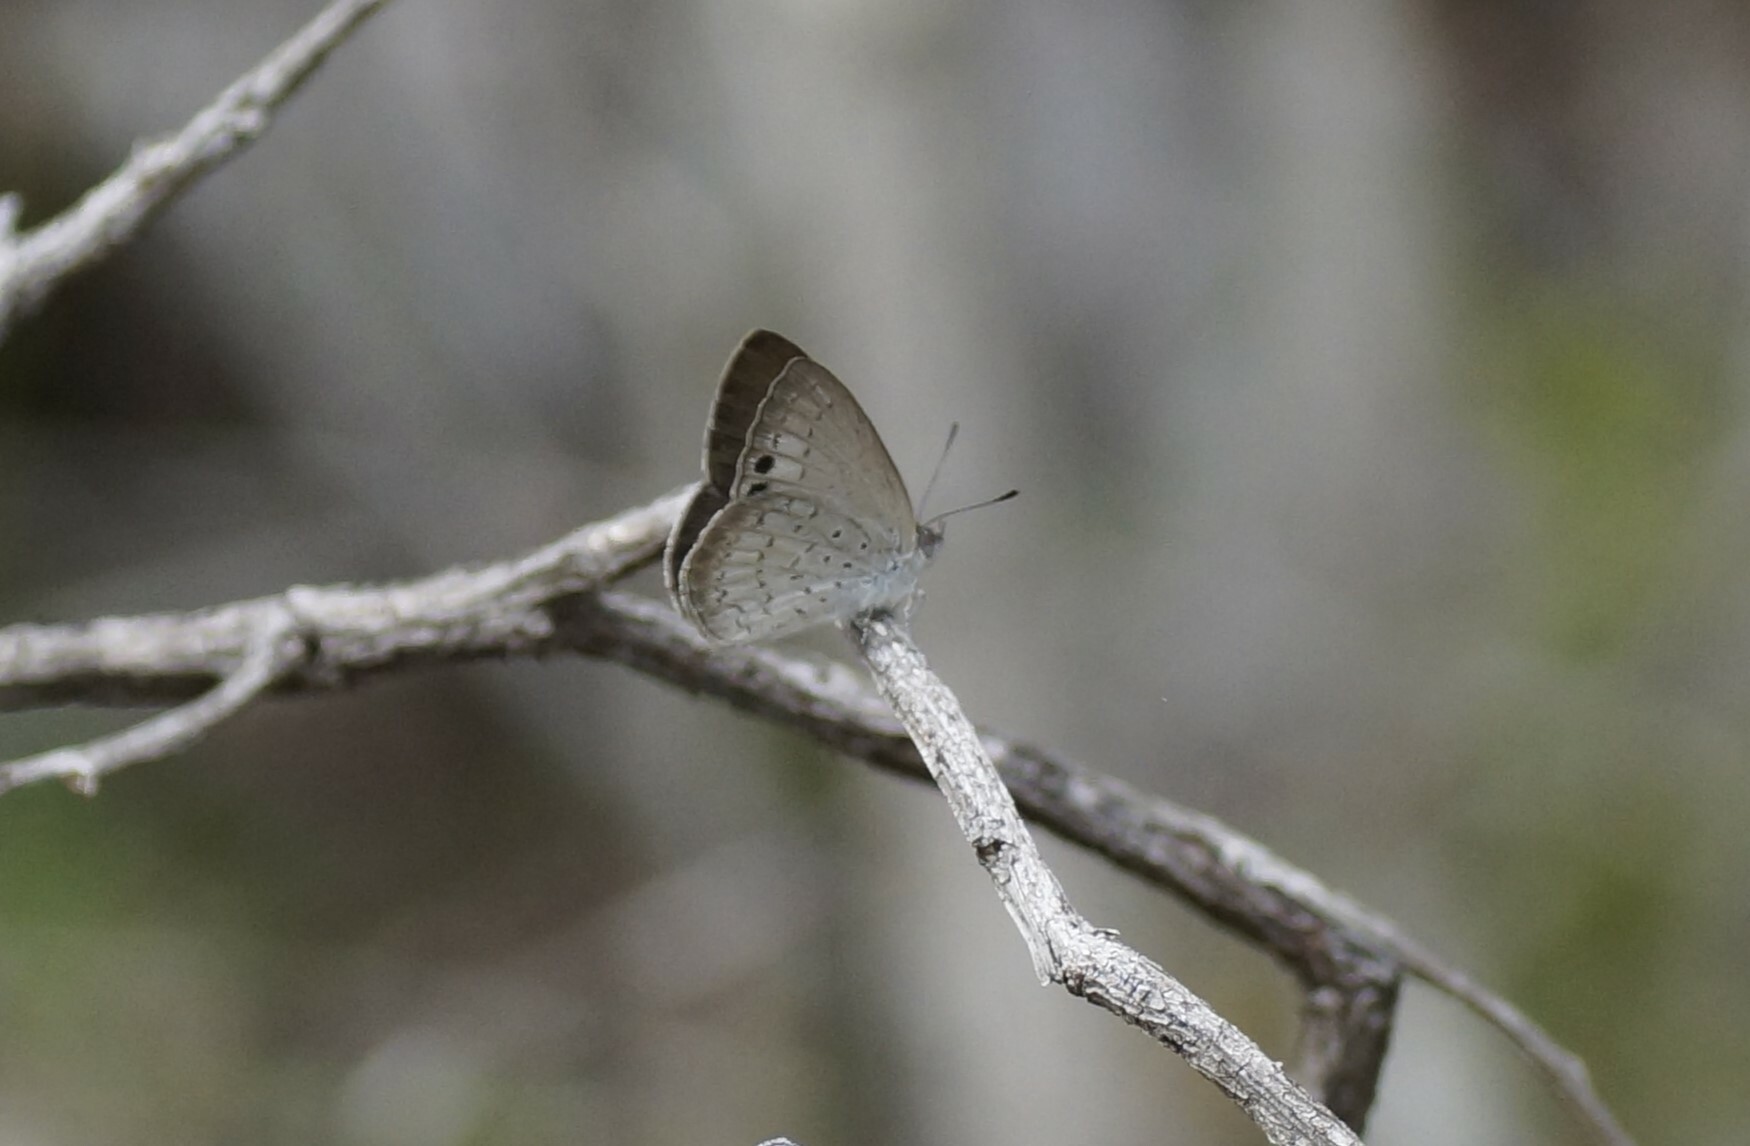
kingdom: Animalia
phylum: Arthropoda
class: Insecta
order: Lepidoptera
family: Lycaenidae
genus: Candalides
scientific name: Candalides
